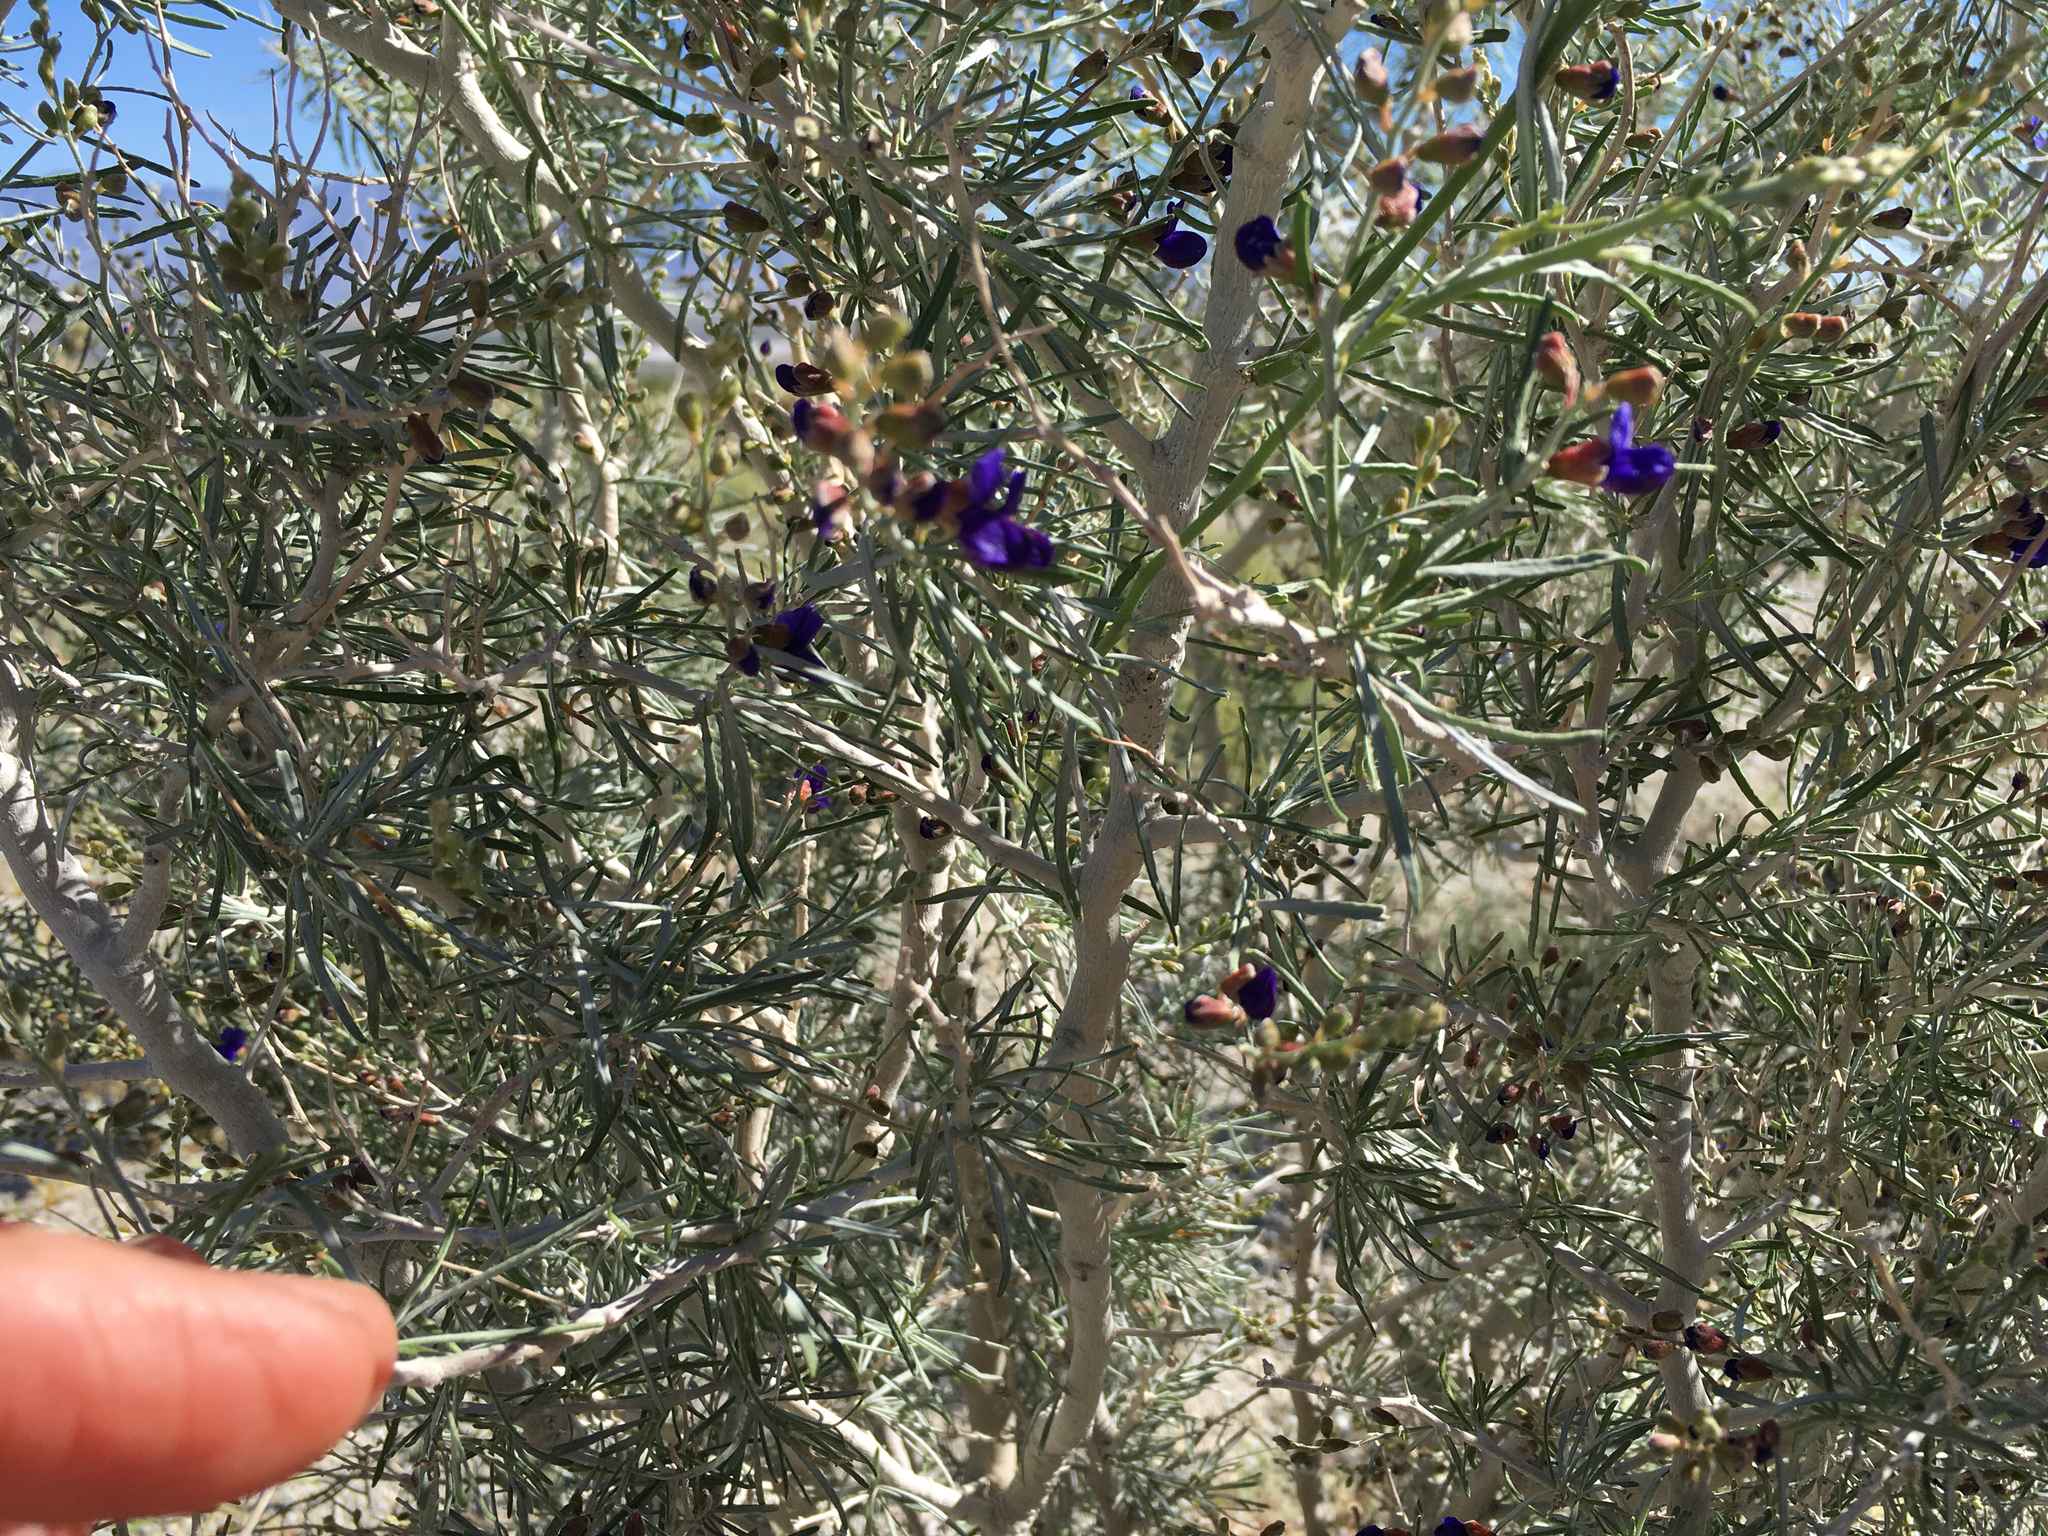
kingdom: Plantae
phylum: Tracheophyta
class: Magnoliopsida
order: Fabales
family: Fabaceae
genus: Psorothamnus
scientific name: Psorothamnus schottii
